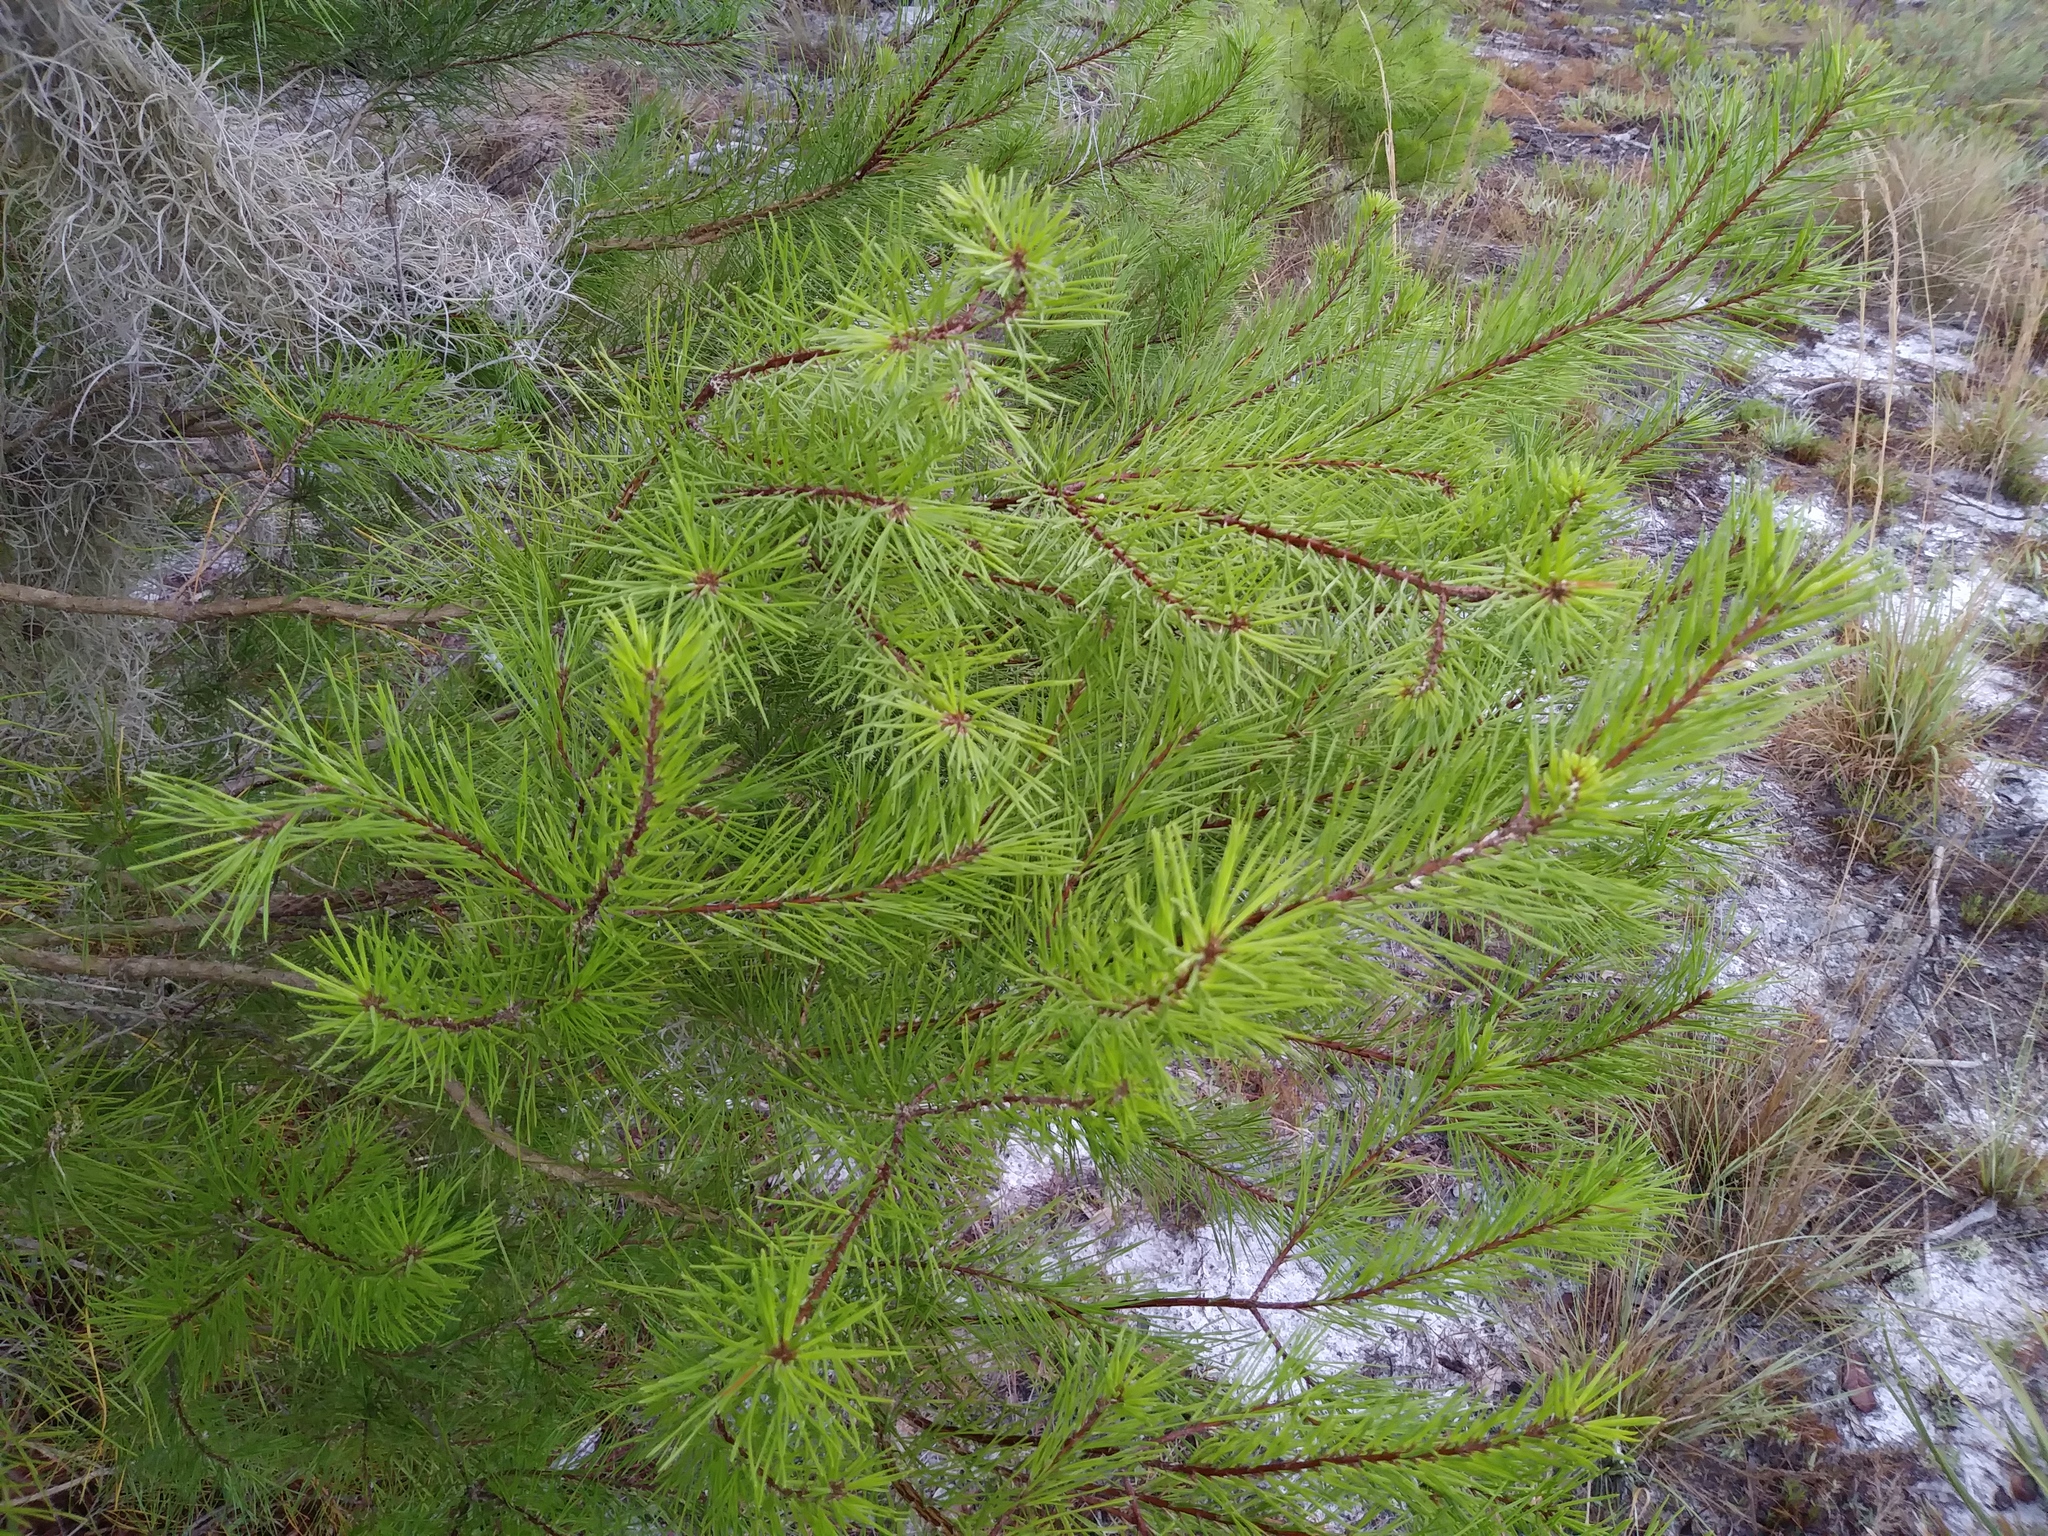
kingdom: Plantae
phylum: Tracheophyta
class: Pinopsida
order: Pinales
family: Pinaceae
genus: Pinus
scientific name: Pinus clausa
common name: Sand pine
